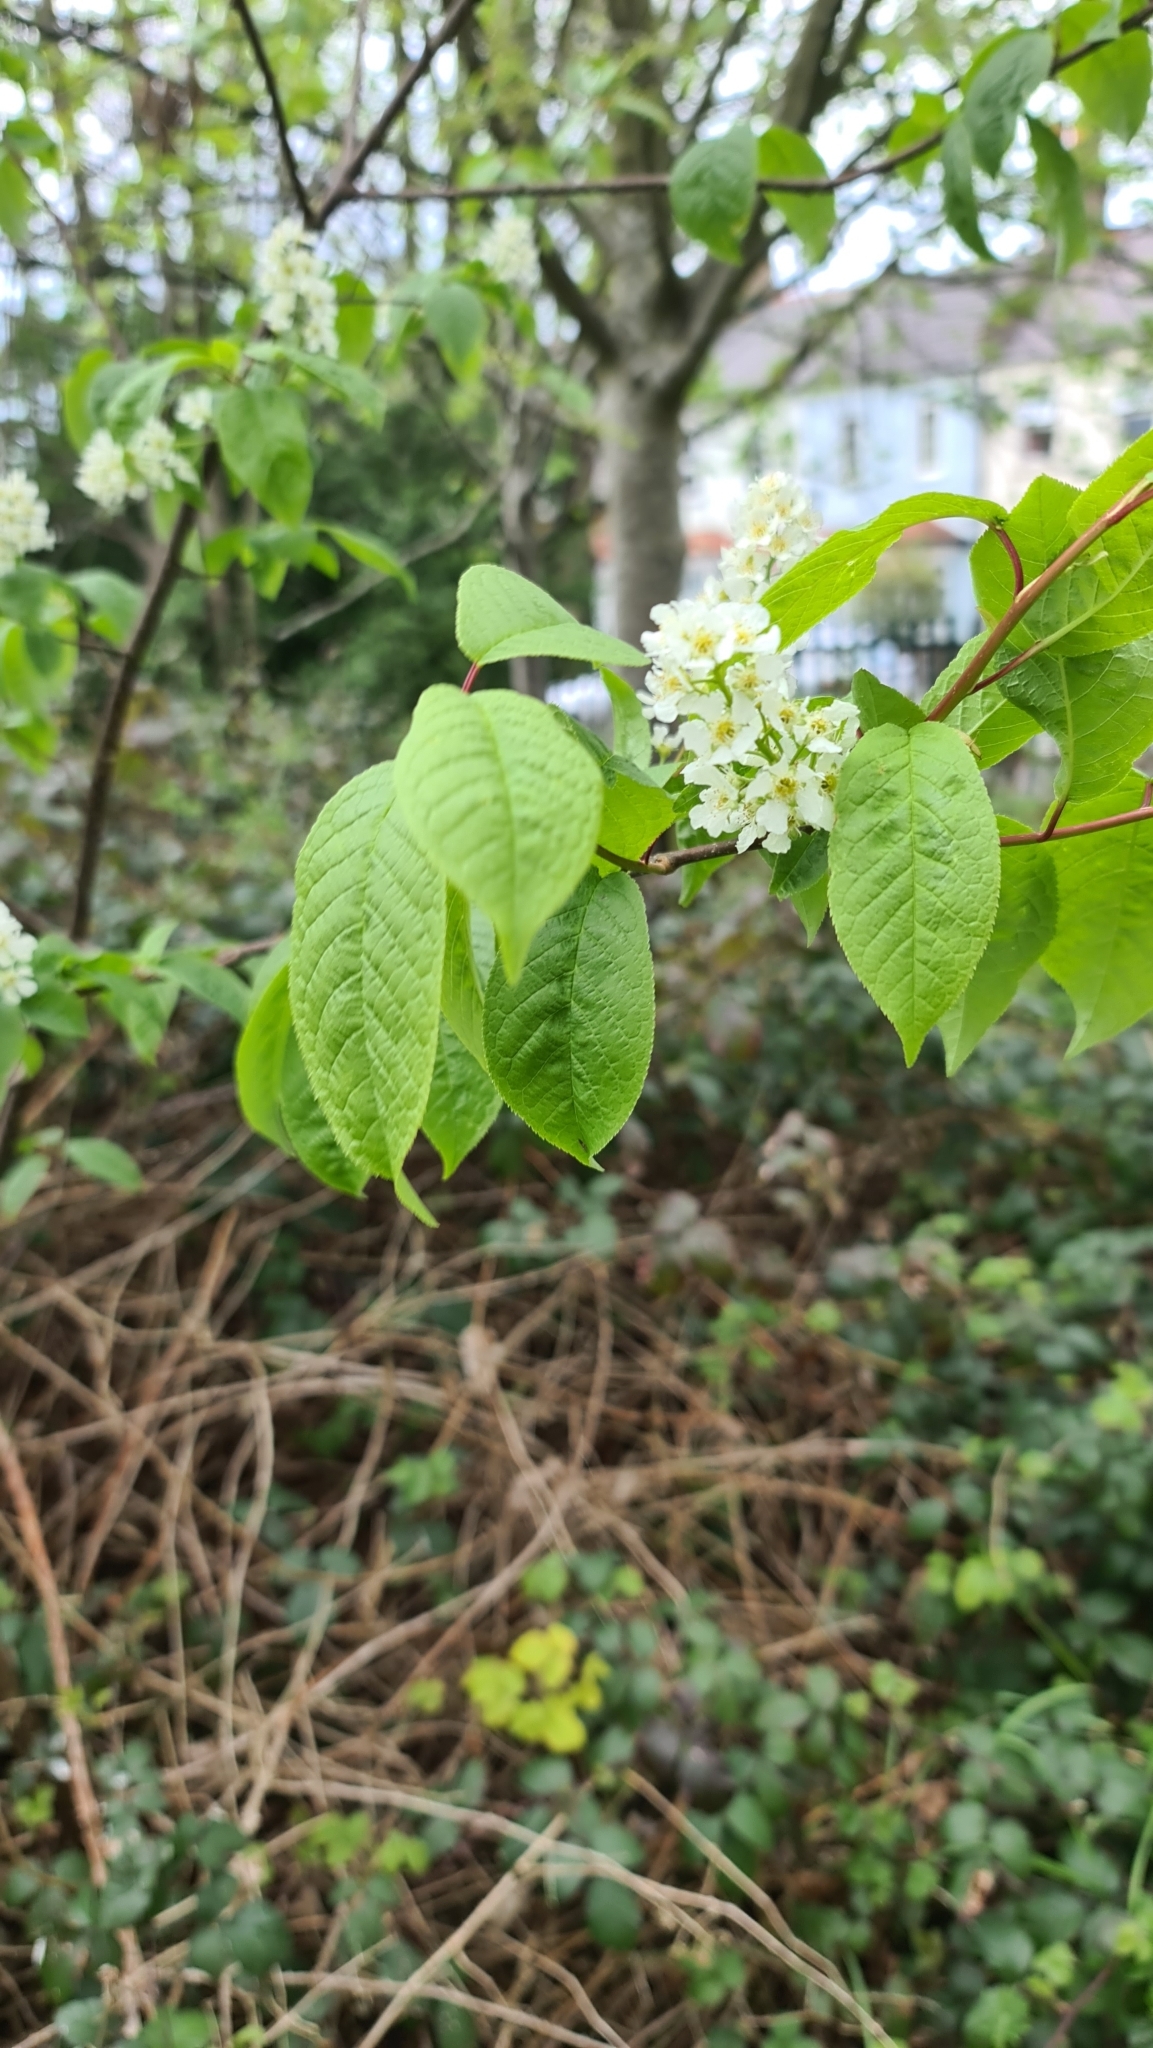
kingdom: Plantae
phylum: Tracheophyta
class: Magnoliopsida
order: Rosales
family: Rosaceae
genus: Prunus
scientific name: Prunus padus
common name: Bird cherry
